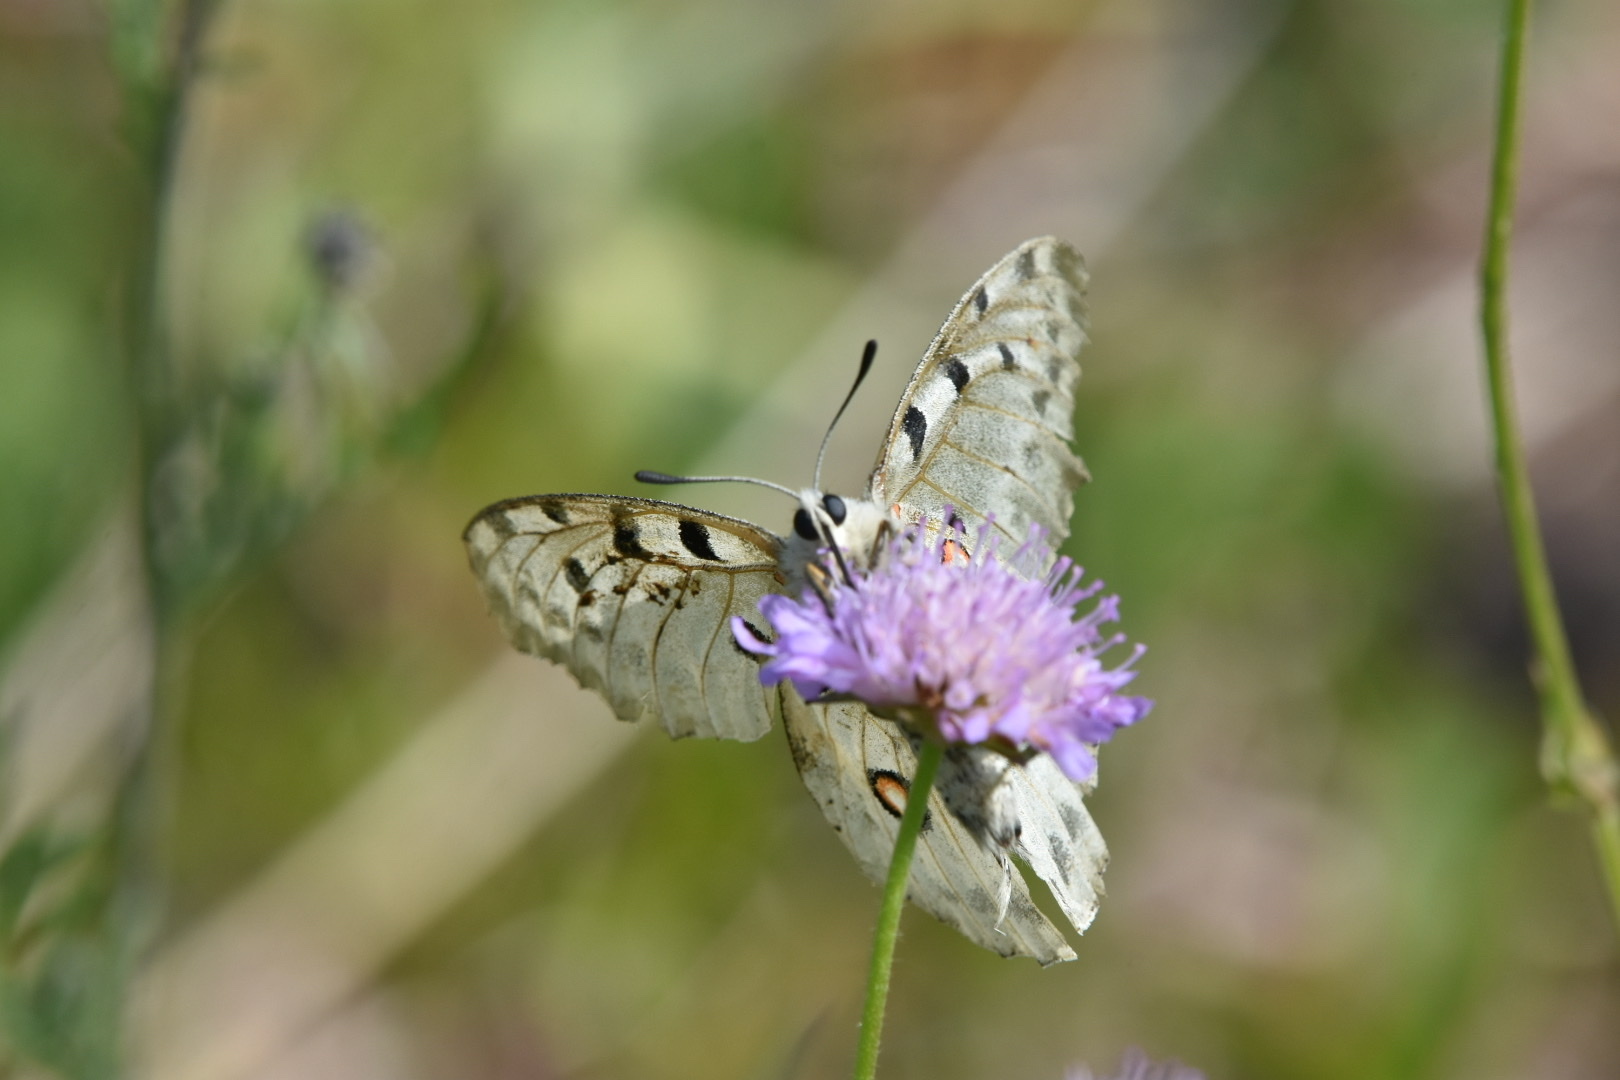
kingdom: Animalia
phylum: Arthropoda
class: Insecta
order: Lepidoptera
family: Papilionidae
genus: Parnassius
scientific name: Parnassius apollo
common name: Apollo
